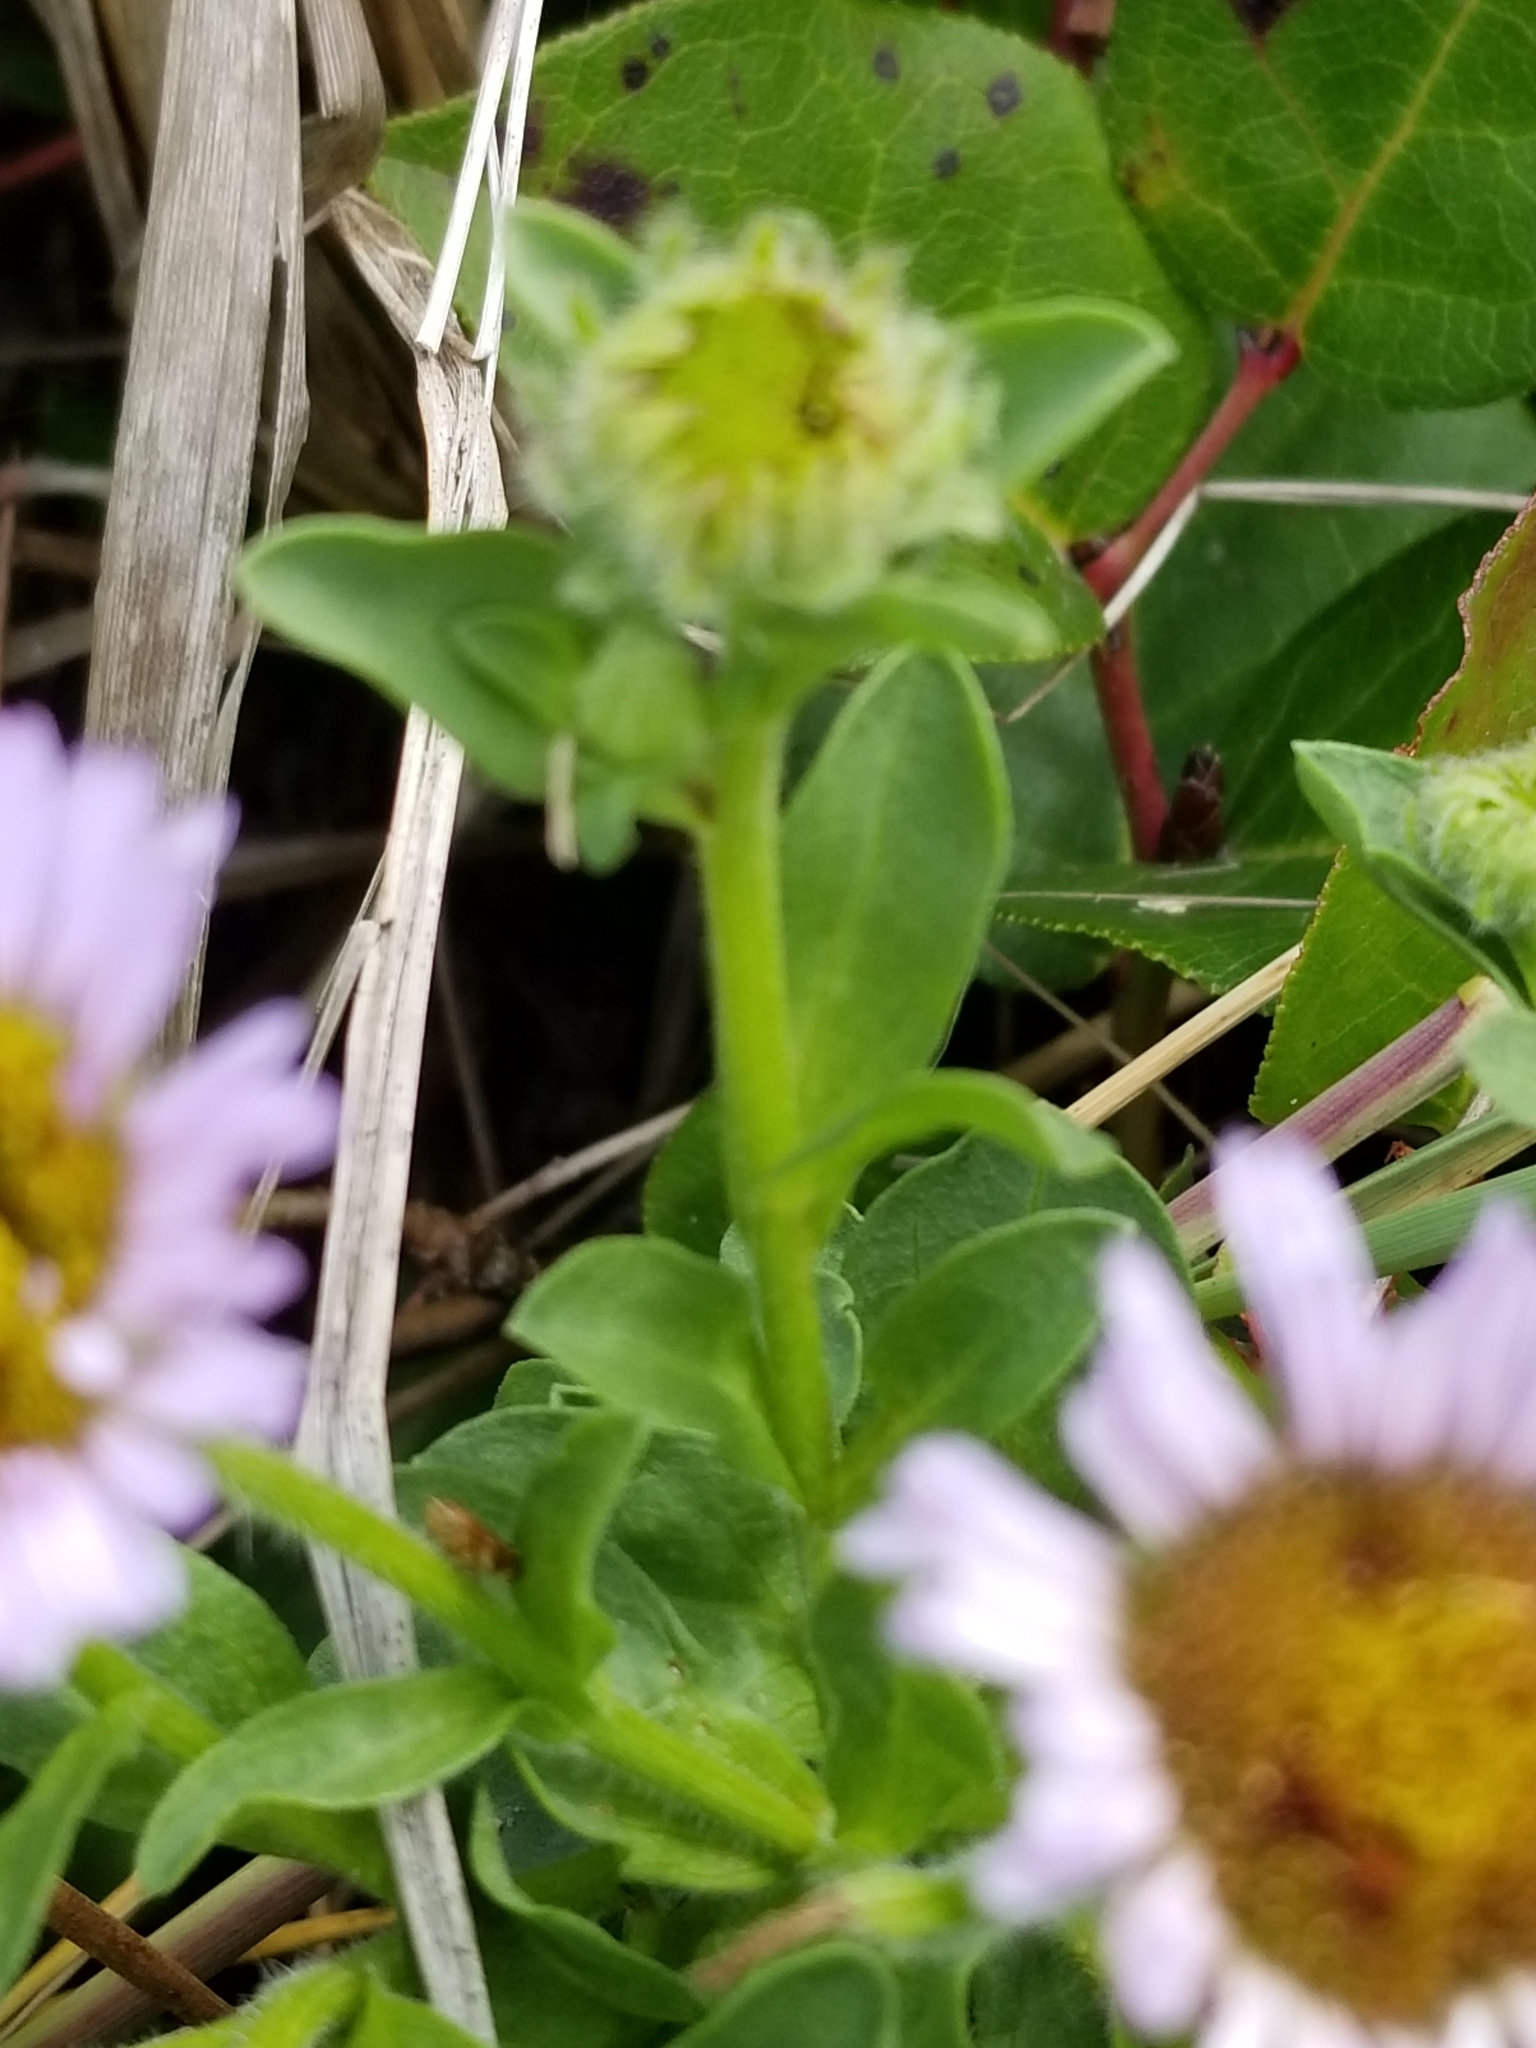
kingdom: Plantae
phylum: Tracheophyta
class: Magnoliopsida
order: Asterales
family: Asteraceae
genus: Erigeron
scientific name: Erigeron glaucus
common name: Seaside daisy
